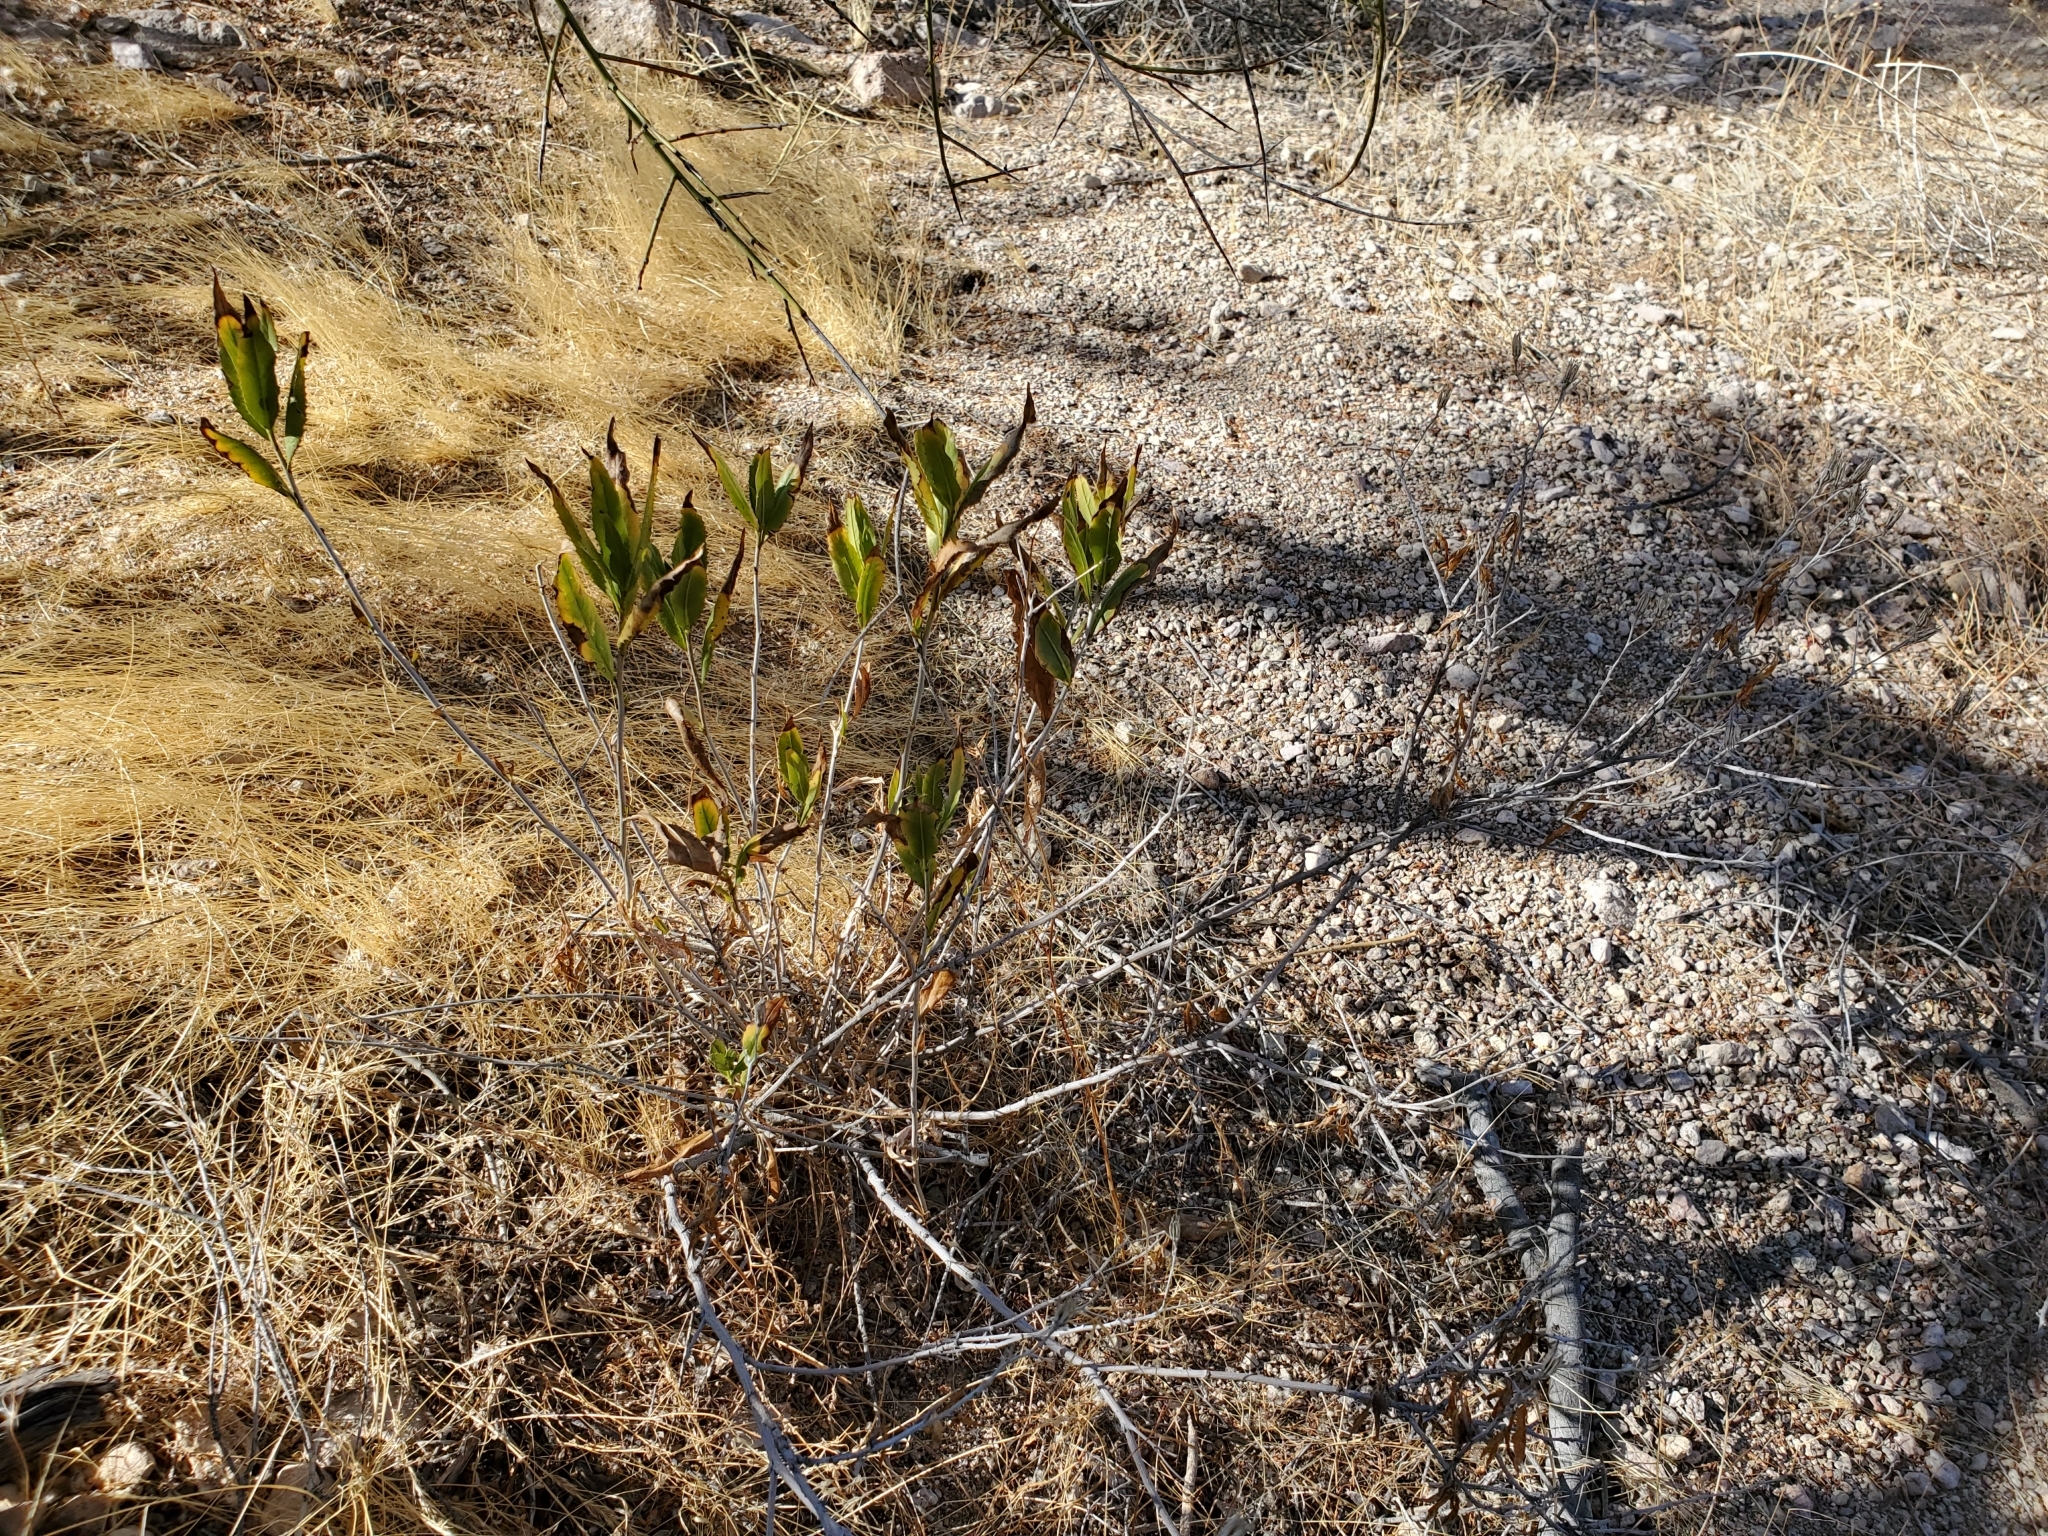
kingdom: Plantae
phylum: Tracheophyta
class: Magnoliopsida
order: Asterales
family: Asteraceae
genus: Trixis
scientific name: Trixis californica
